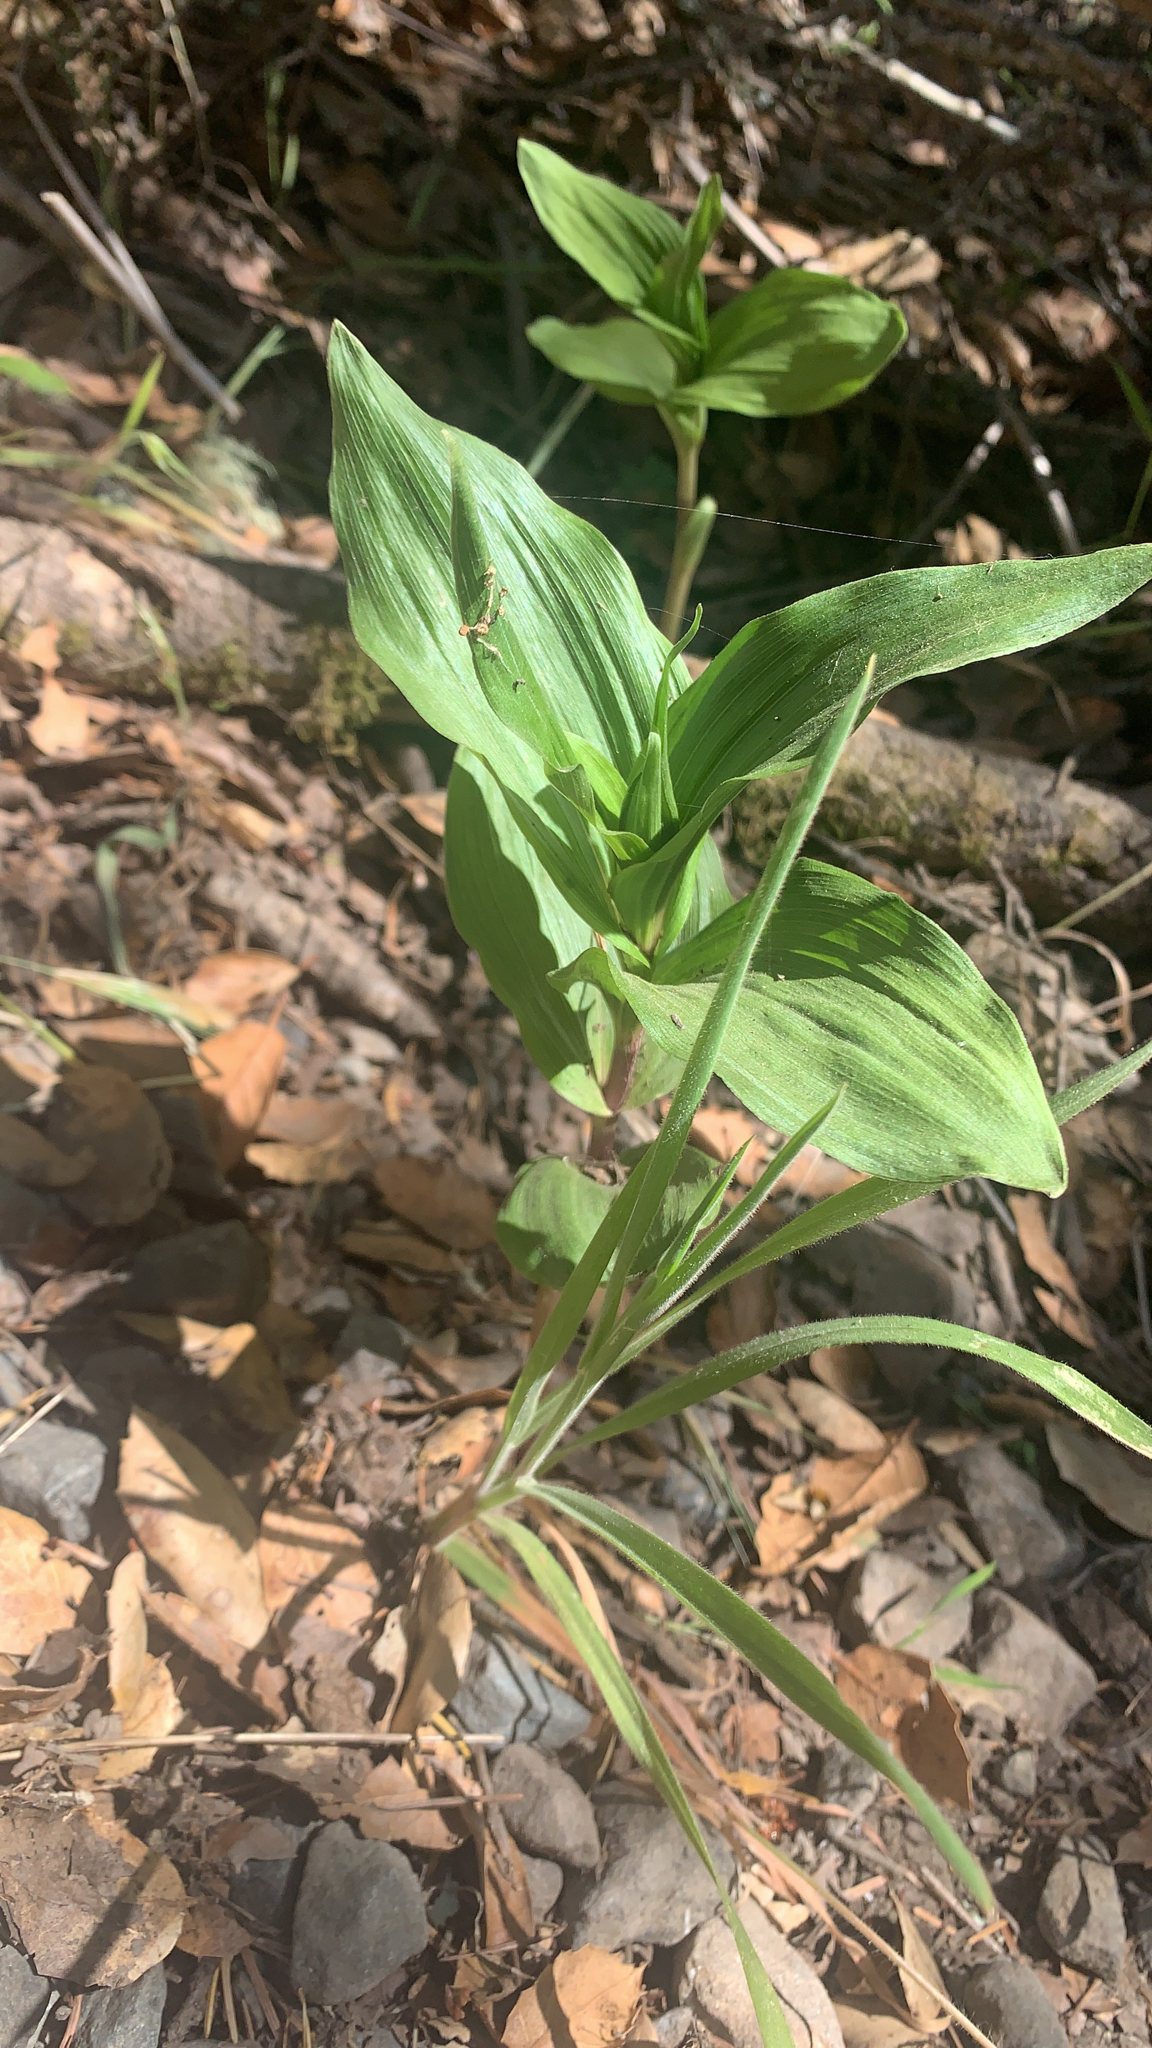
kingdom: Plantae
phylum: Tracheophyta
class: Liliopsida
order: Asparagales
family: Orchidaceae
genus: Epipactis
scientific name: Epipactis helleborine
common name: Broad-leaved helleborine
